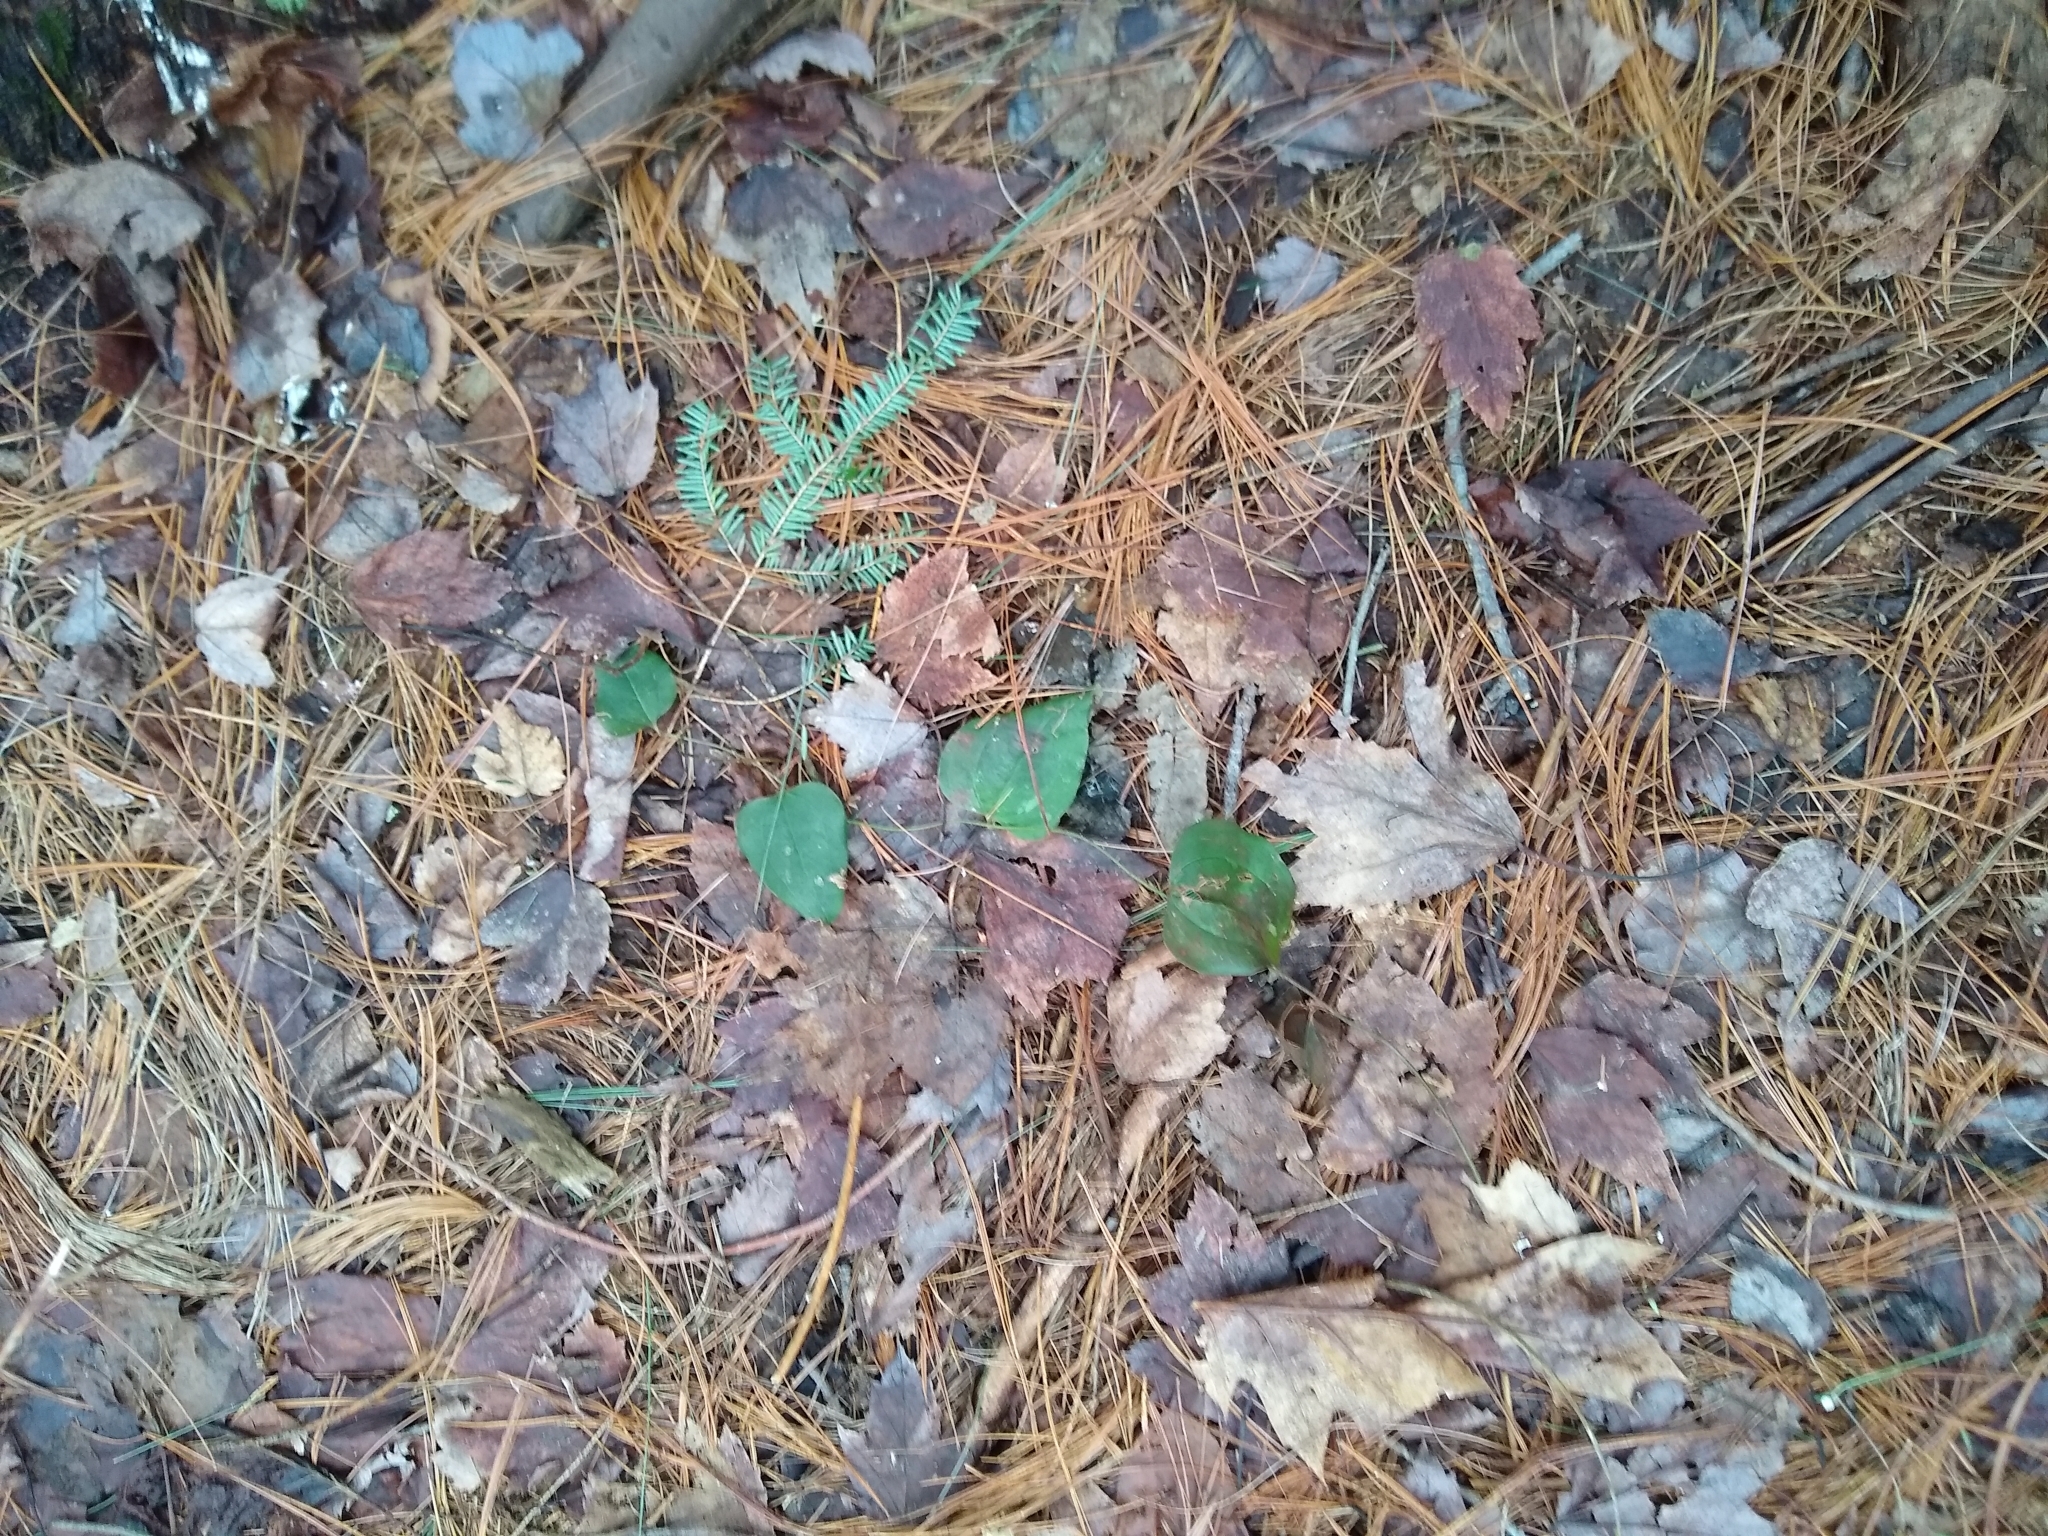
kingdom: Plantae
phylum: Tracheophyta
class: Liliopsida
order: Liliales
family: Smilacaceae
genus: Smilax
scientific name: Smilax glauca
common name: Cat greenbrier
